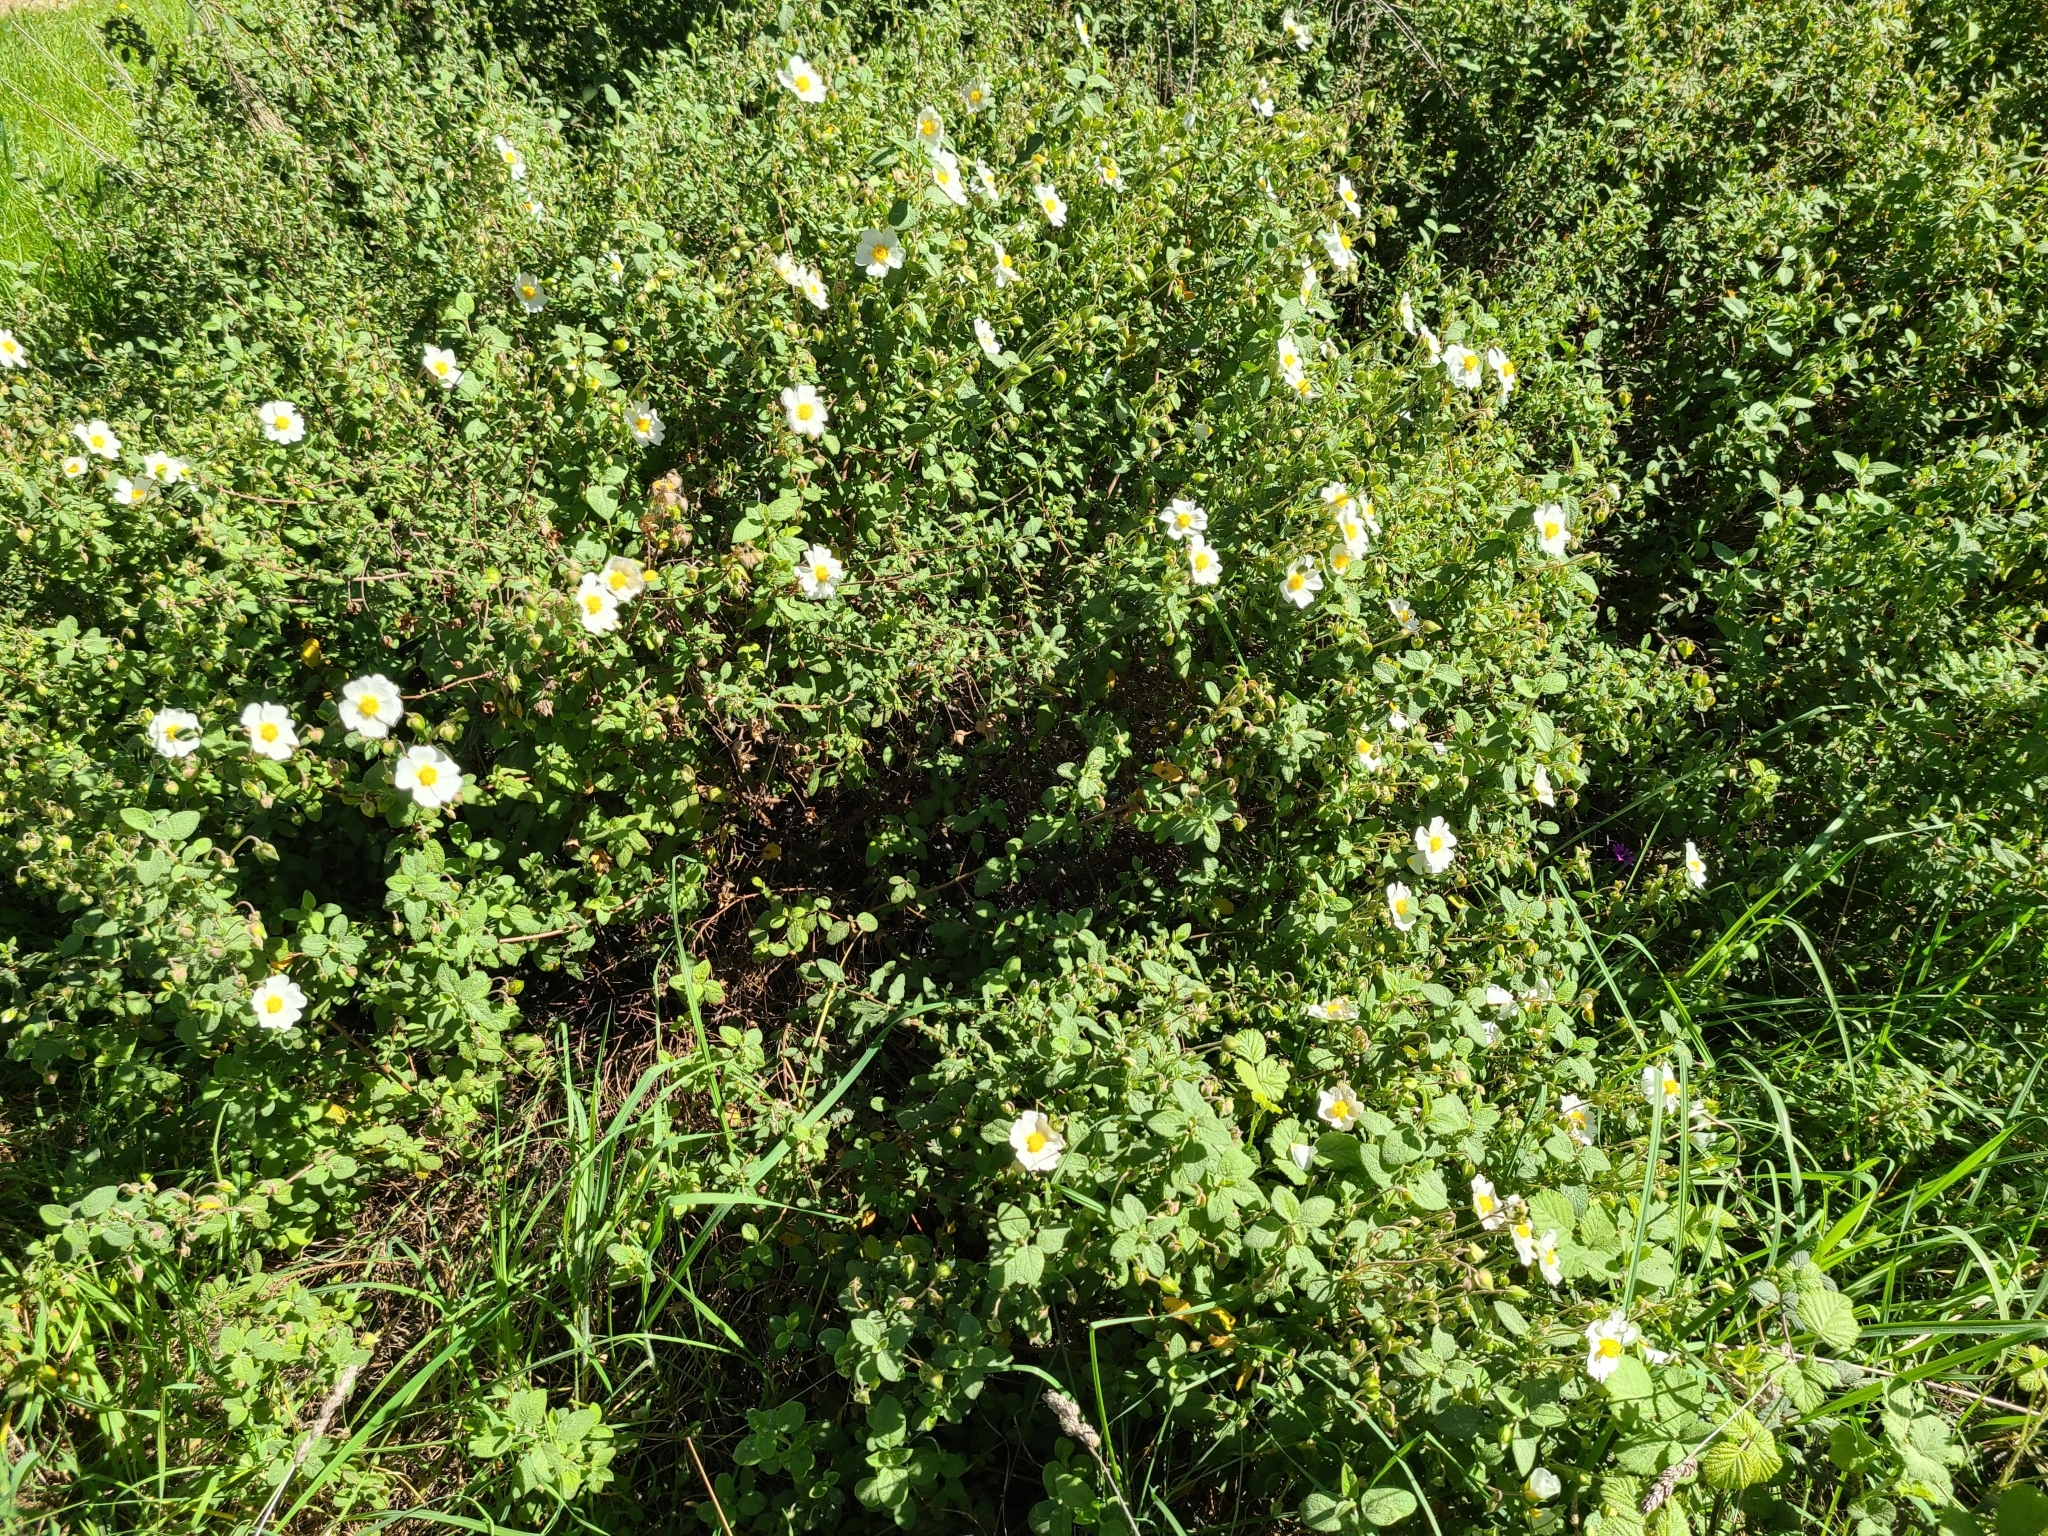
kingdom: Plantae
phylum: Tracheophyta
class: Magnoliopsida
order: Malvales
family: Cistaceae
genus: Cistus
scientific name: Cistus salviifolius
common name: Salvia cistus
